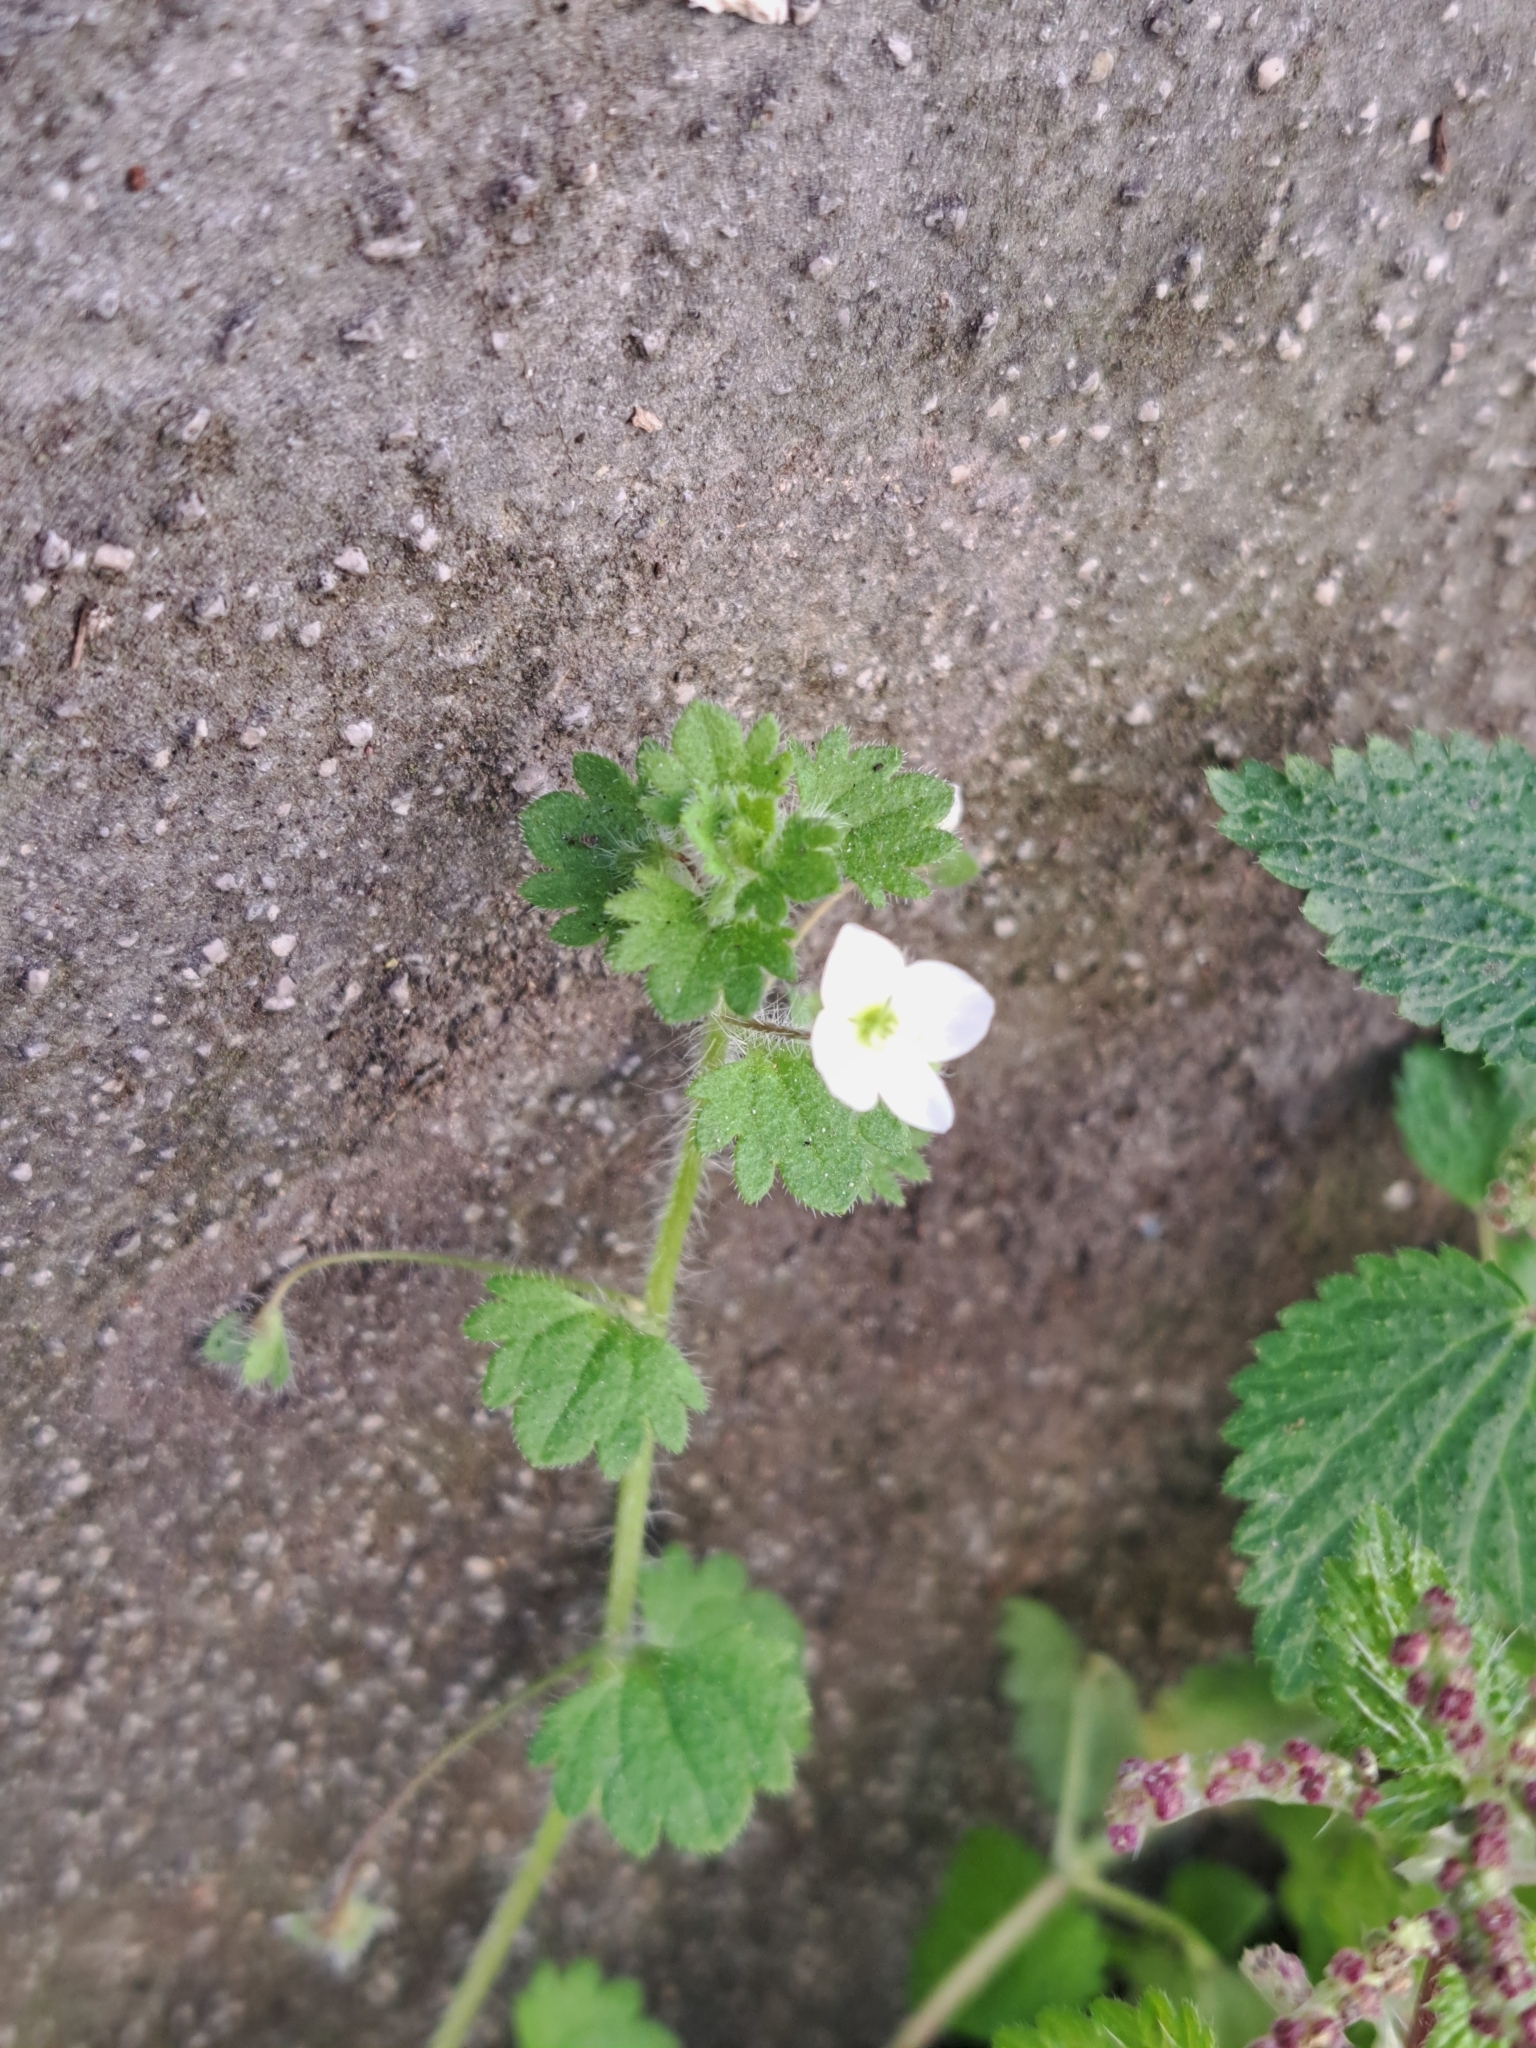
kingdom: Plantae
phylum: Tracheophyta
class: Magnoliopsida
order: Lamiales
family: Plantaginaceae
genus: Veronica
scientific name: Veronica cymbalaria
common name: Pale speedwell
